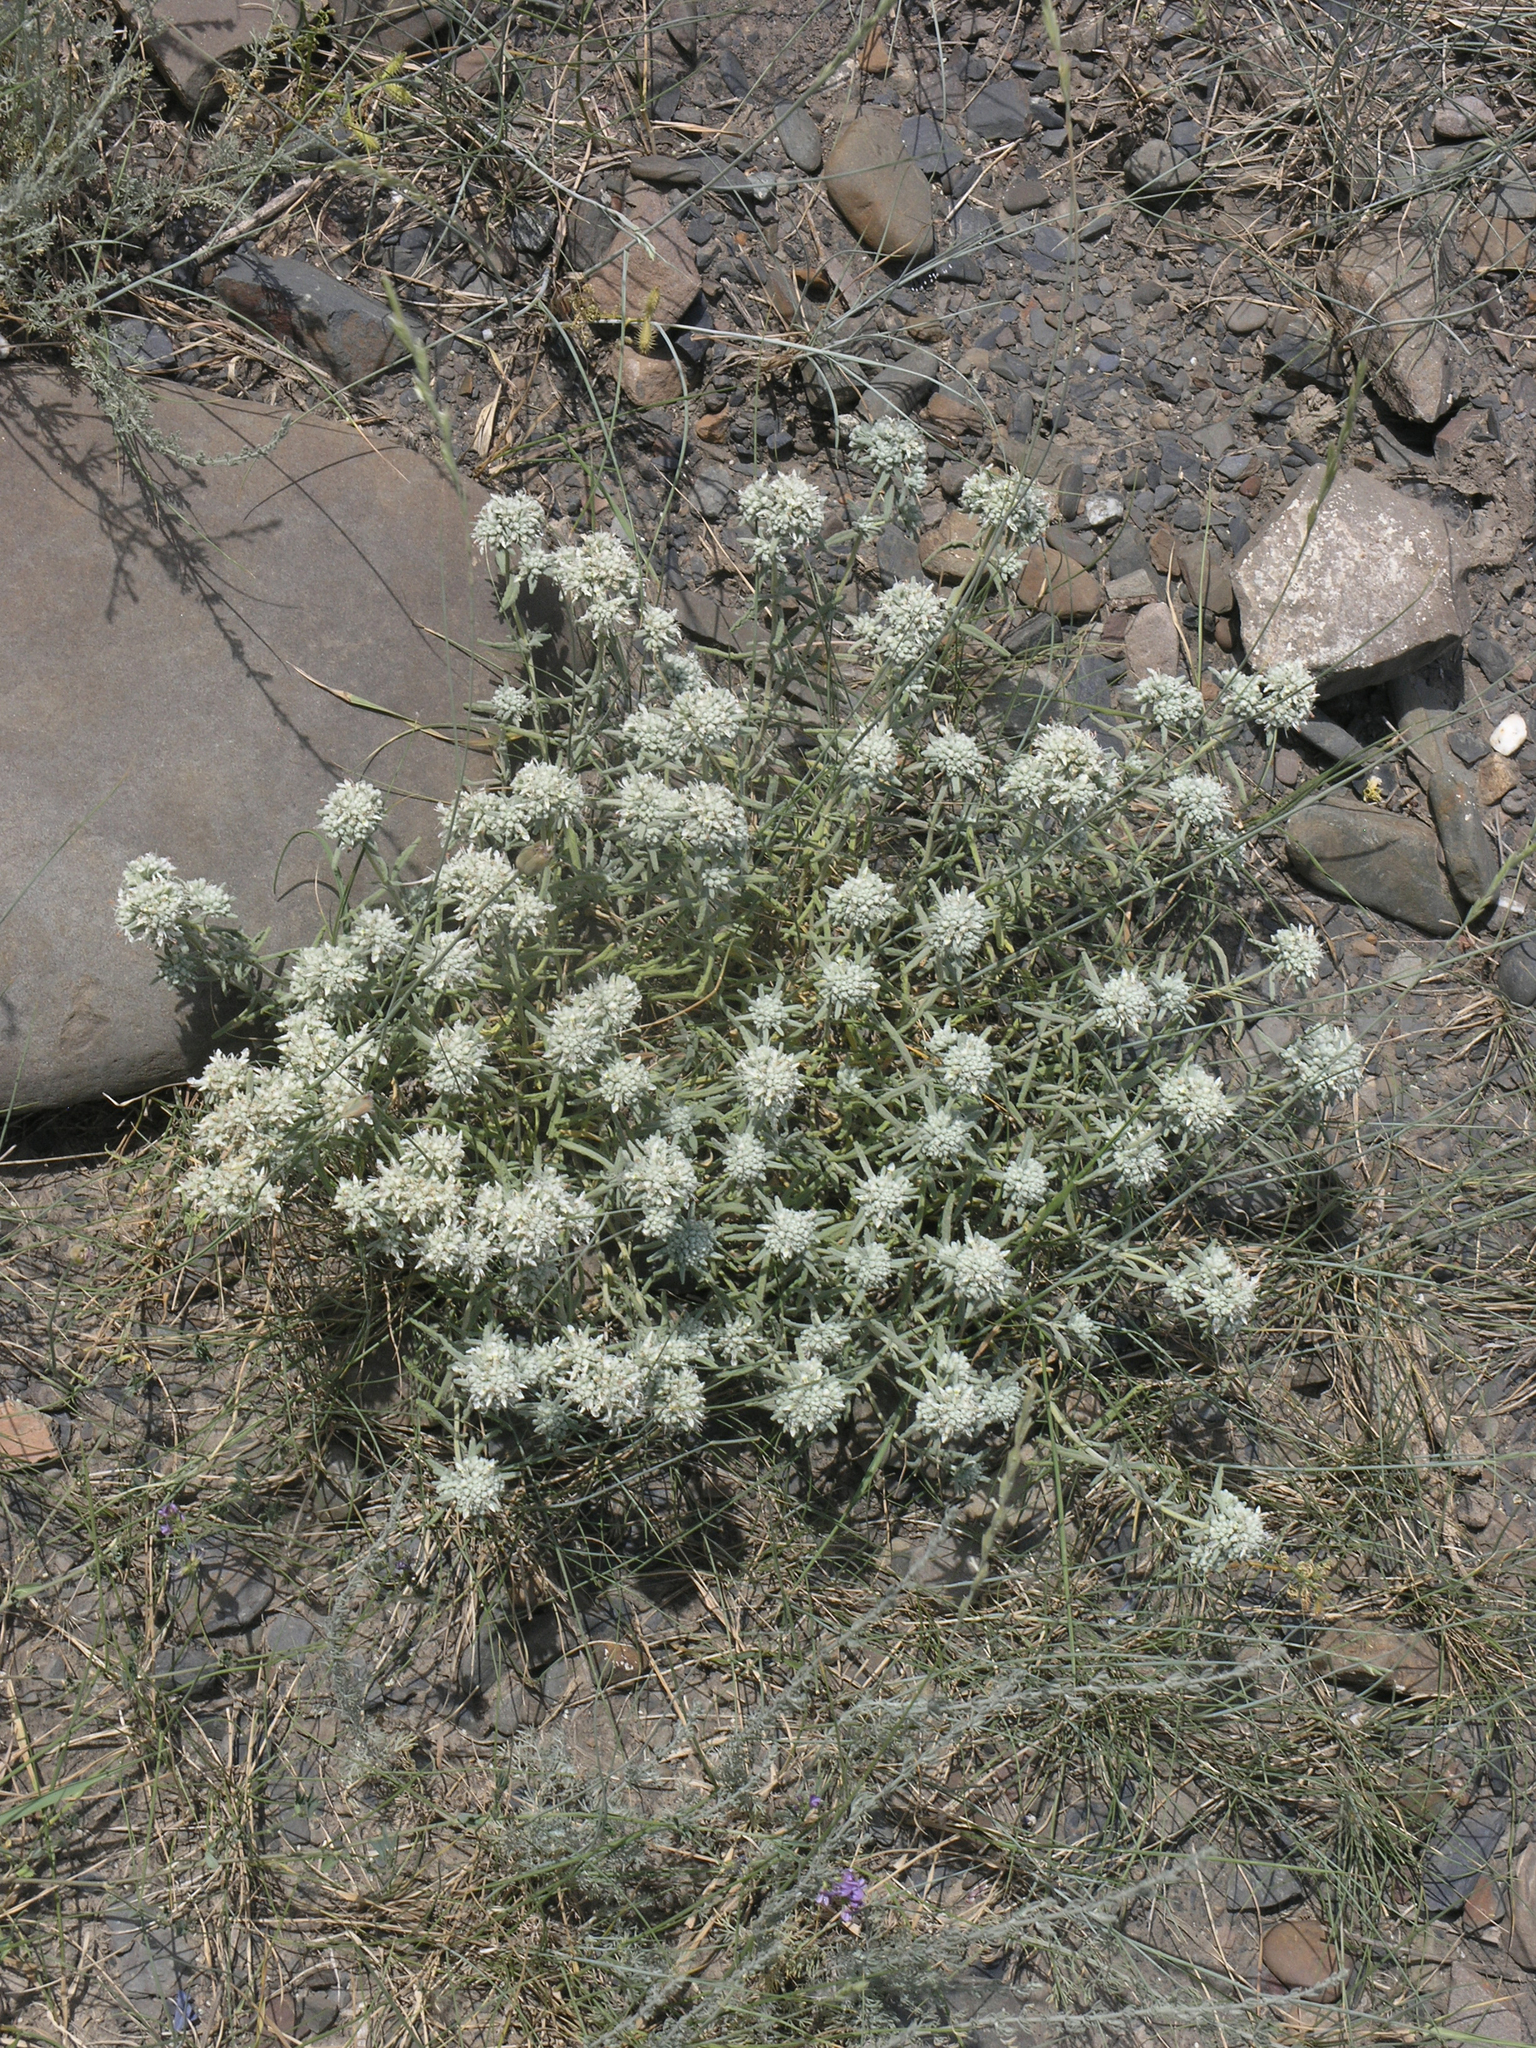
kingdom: Plantae
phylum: Tracheophyta
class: Magnoliopsida
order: Lamiales
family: Lamiaceae
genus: Teucrium
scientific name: Teucrium polium
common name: Poley
